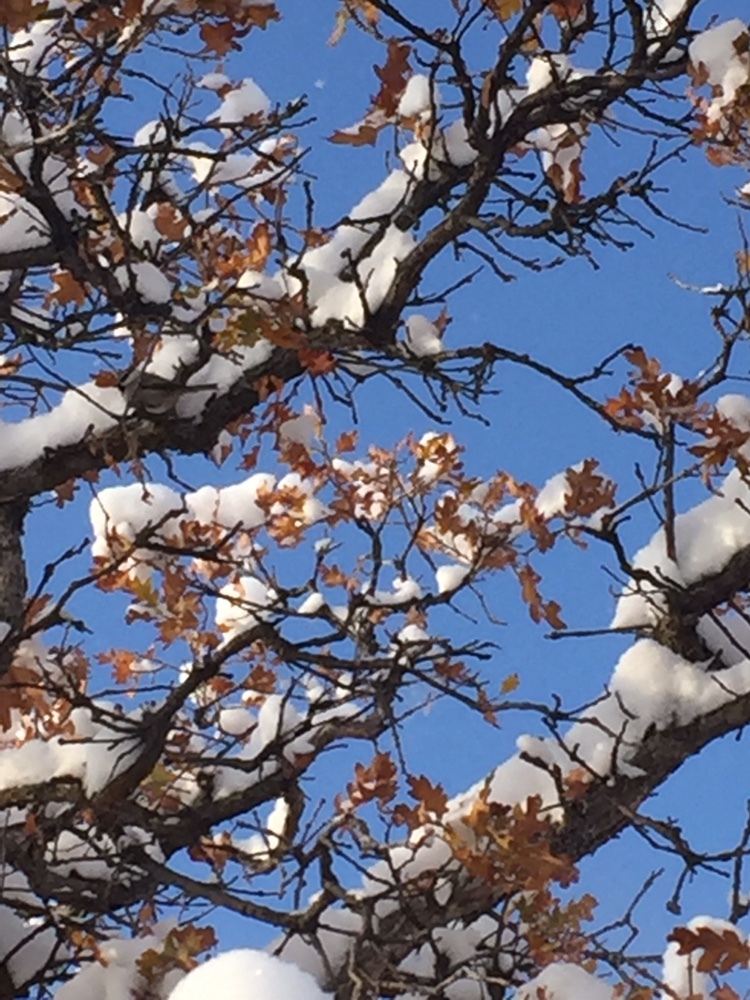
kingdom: Animalia
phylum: Chordata
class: Aves
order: Passeriformes
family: Paridae
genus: Poecile
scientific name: Poecile gambeli
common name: Mountain chickadee
